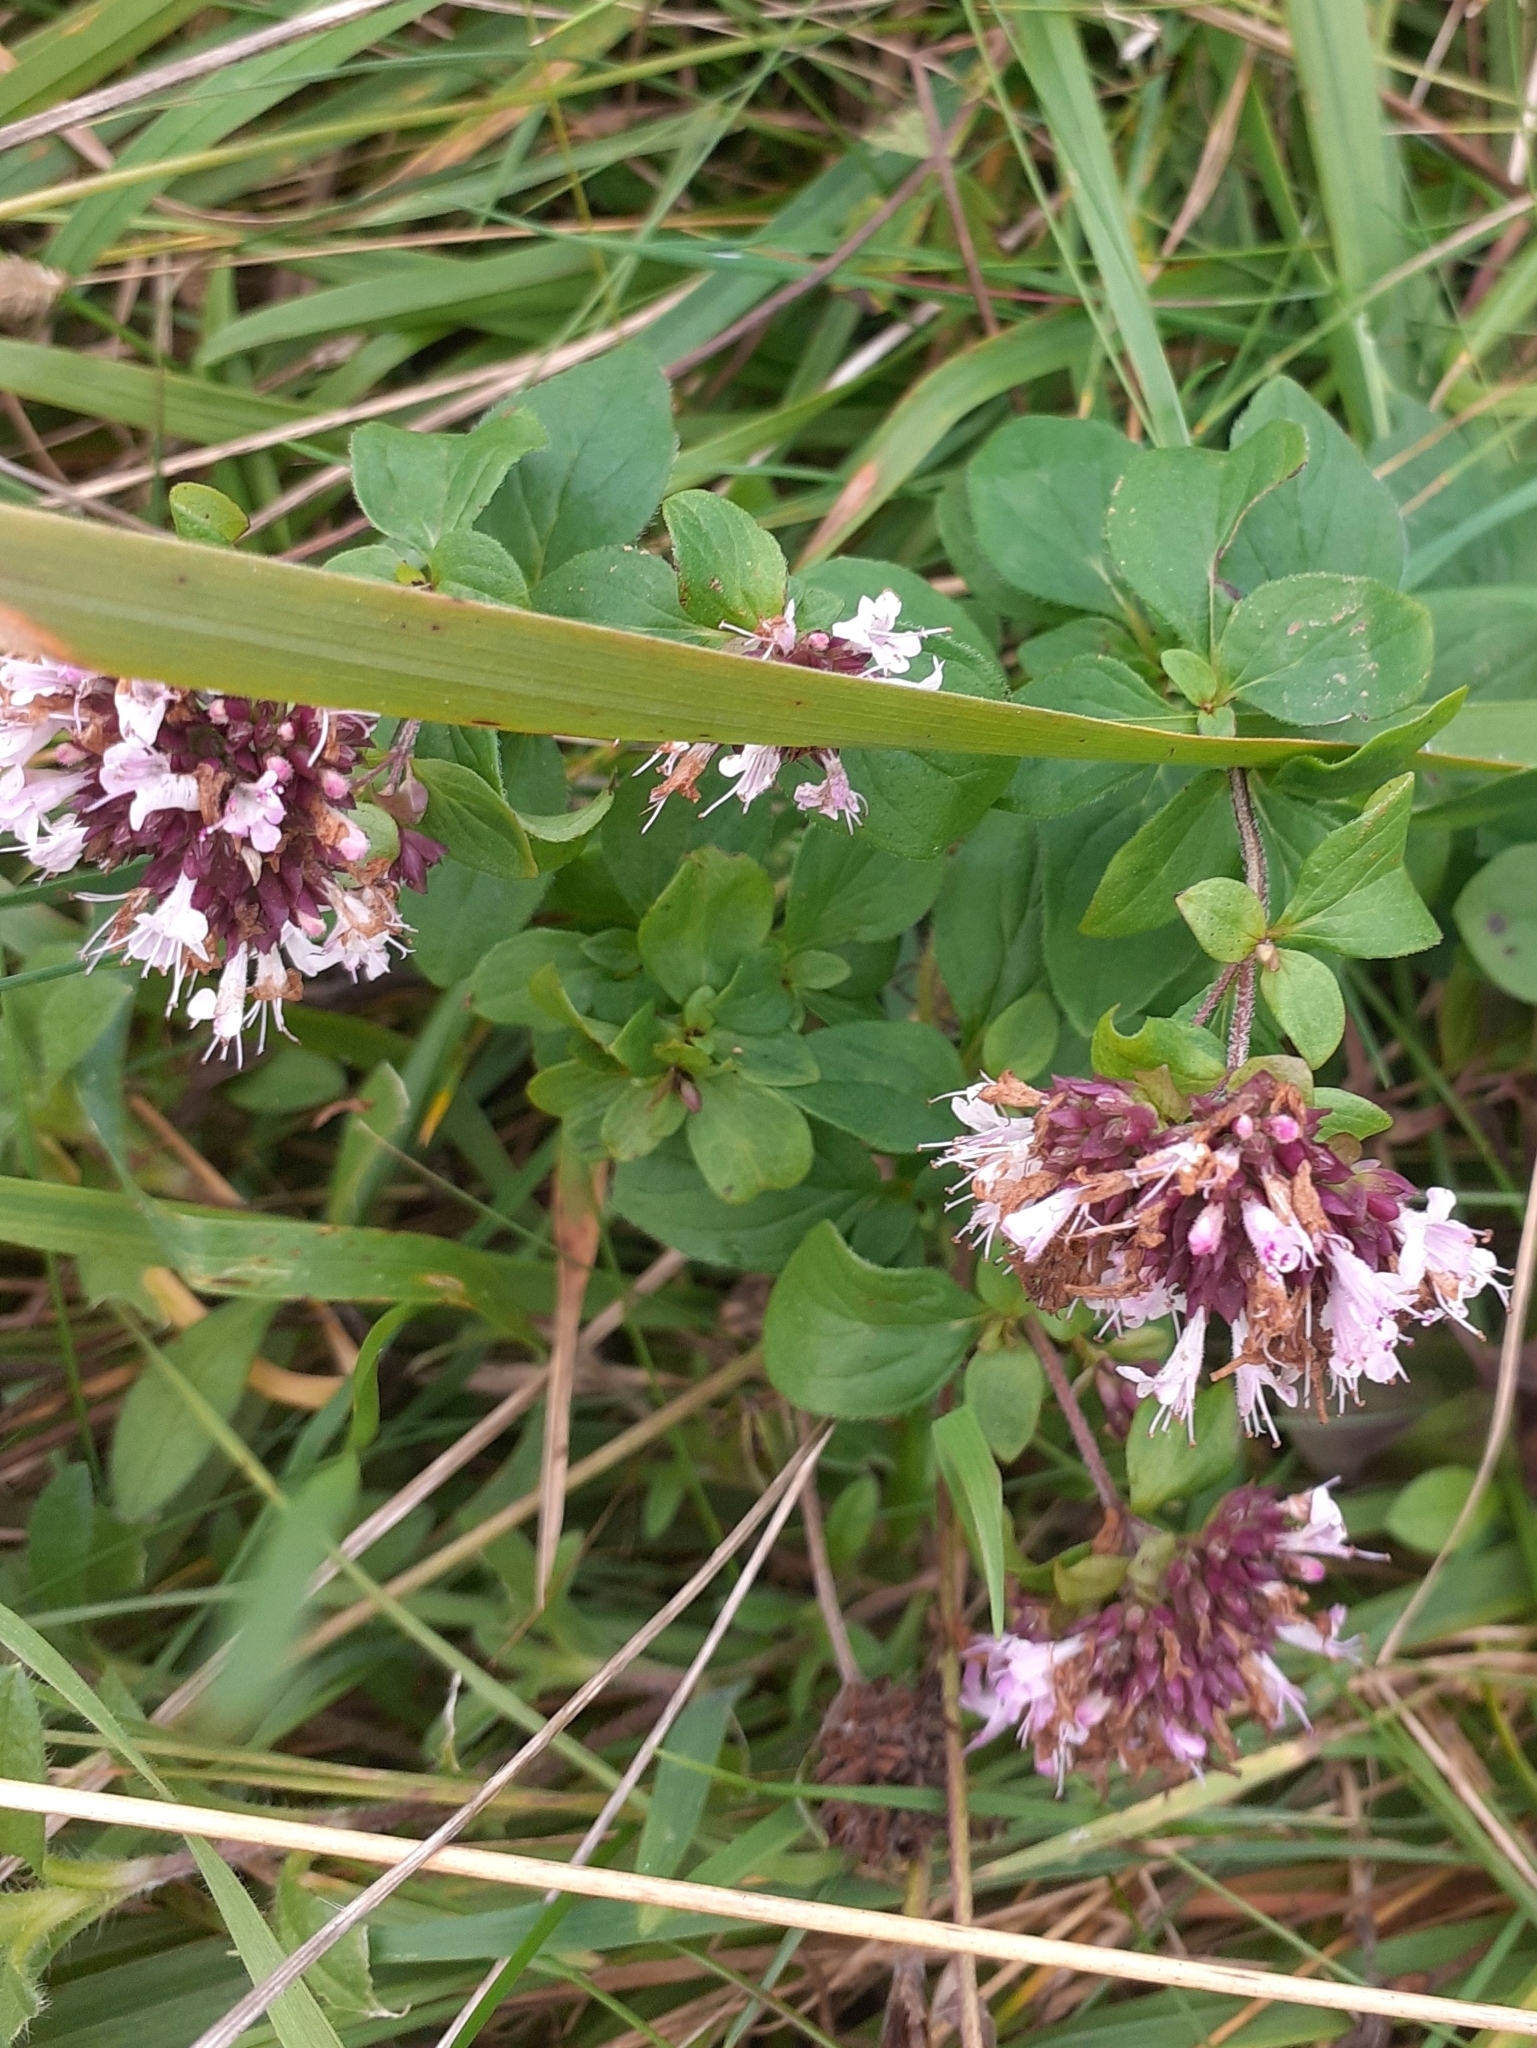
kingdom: Plantae
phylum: Tracheophyta
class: Magnoliopsida
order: Lamiales
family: Lamiaceae
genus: Origanum
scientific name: Origanum vulgare
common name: Wild marjoram
